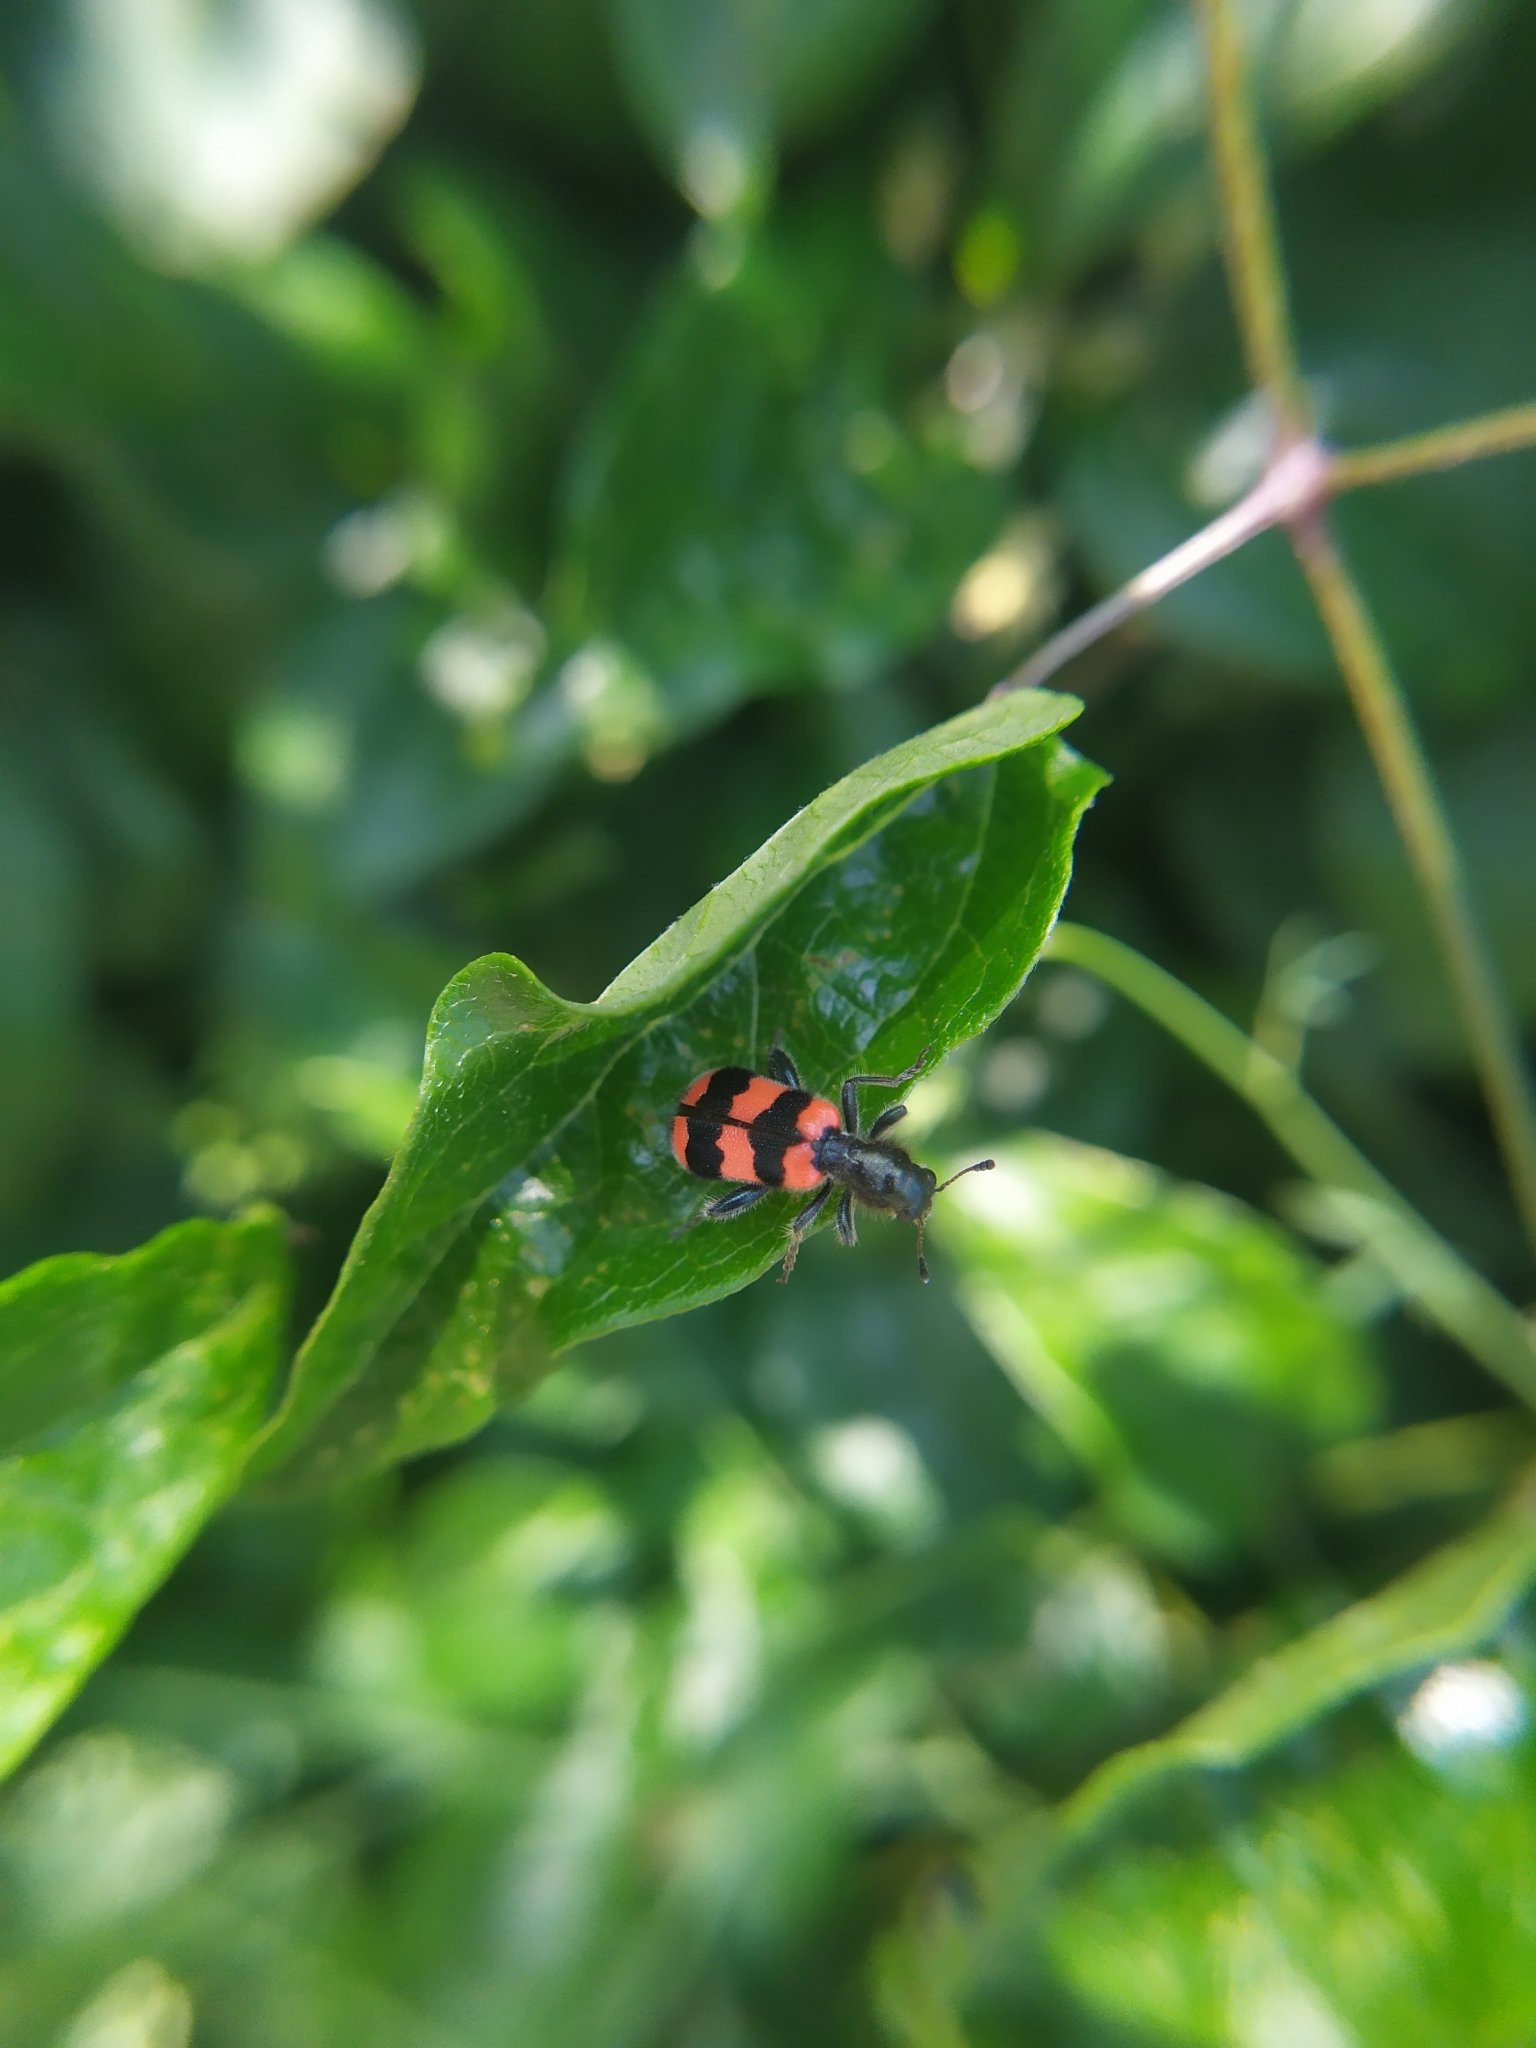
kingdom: Animalia
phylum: Arthropoda
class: Insecta
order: Coleoptera
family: Cleridae
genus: Trichodes
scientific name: Trichodes apiarius
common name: Bee-eating beetle
